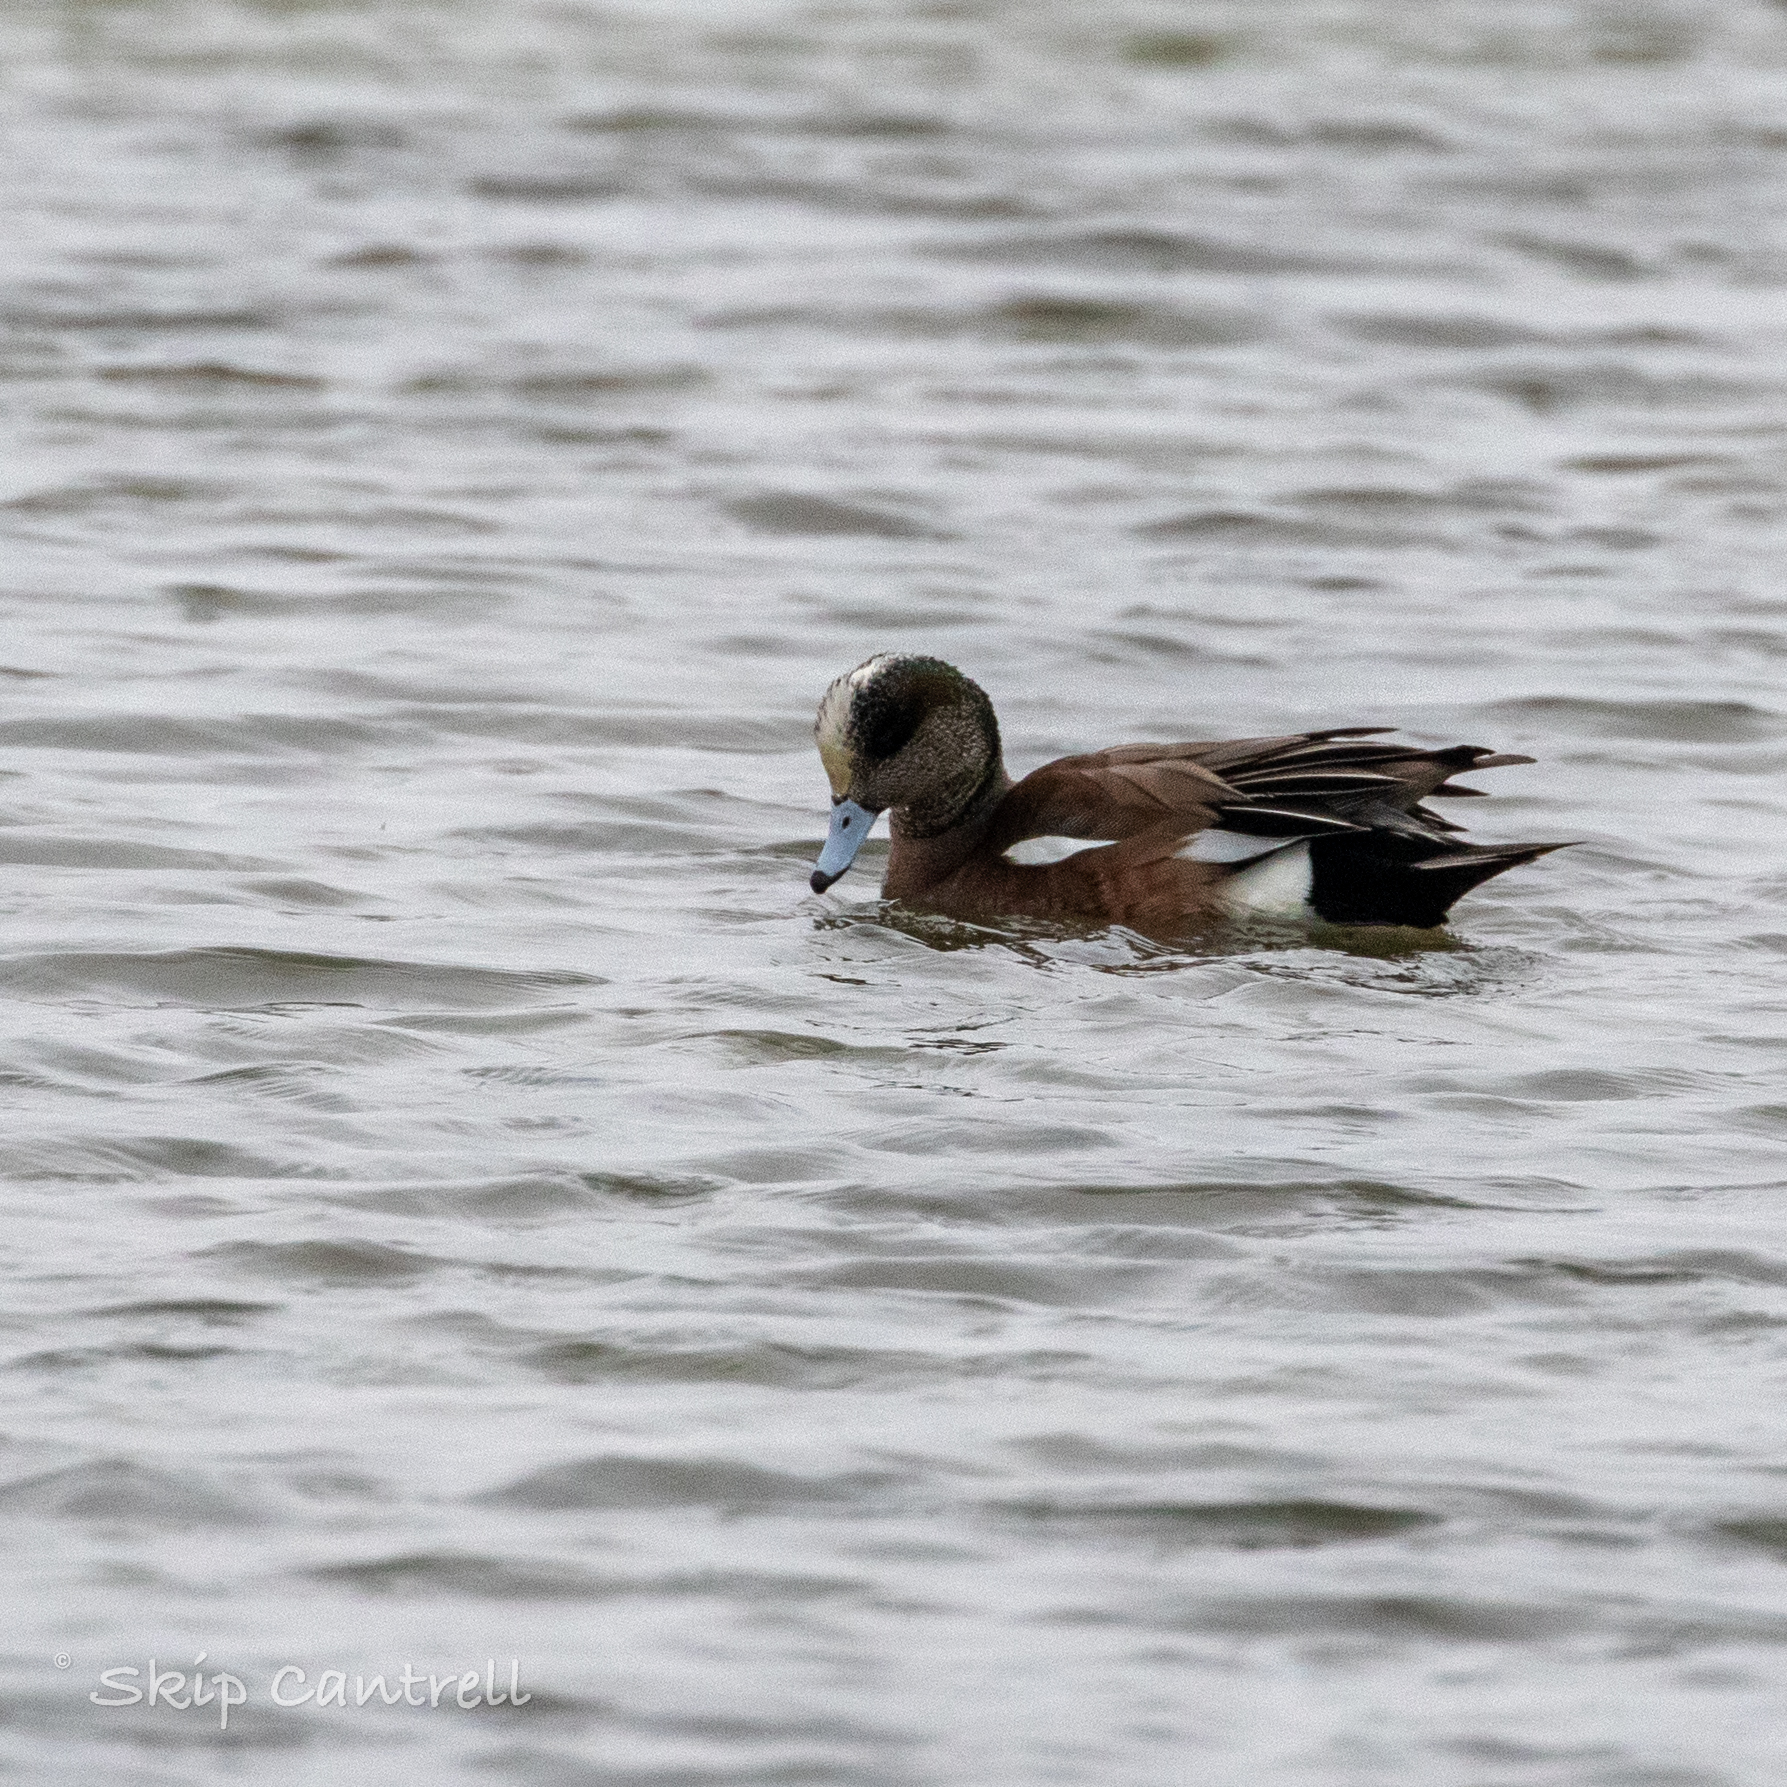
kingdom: Animalia
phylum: Chordata
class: Aves
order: Anseriformes
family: Anatidae
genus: Mareca
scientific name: Mareca americana
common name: American wigeon
